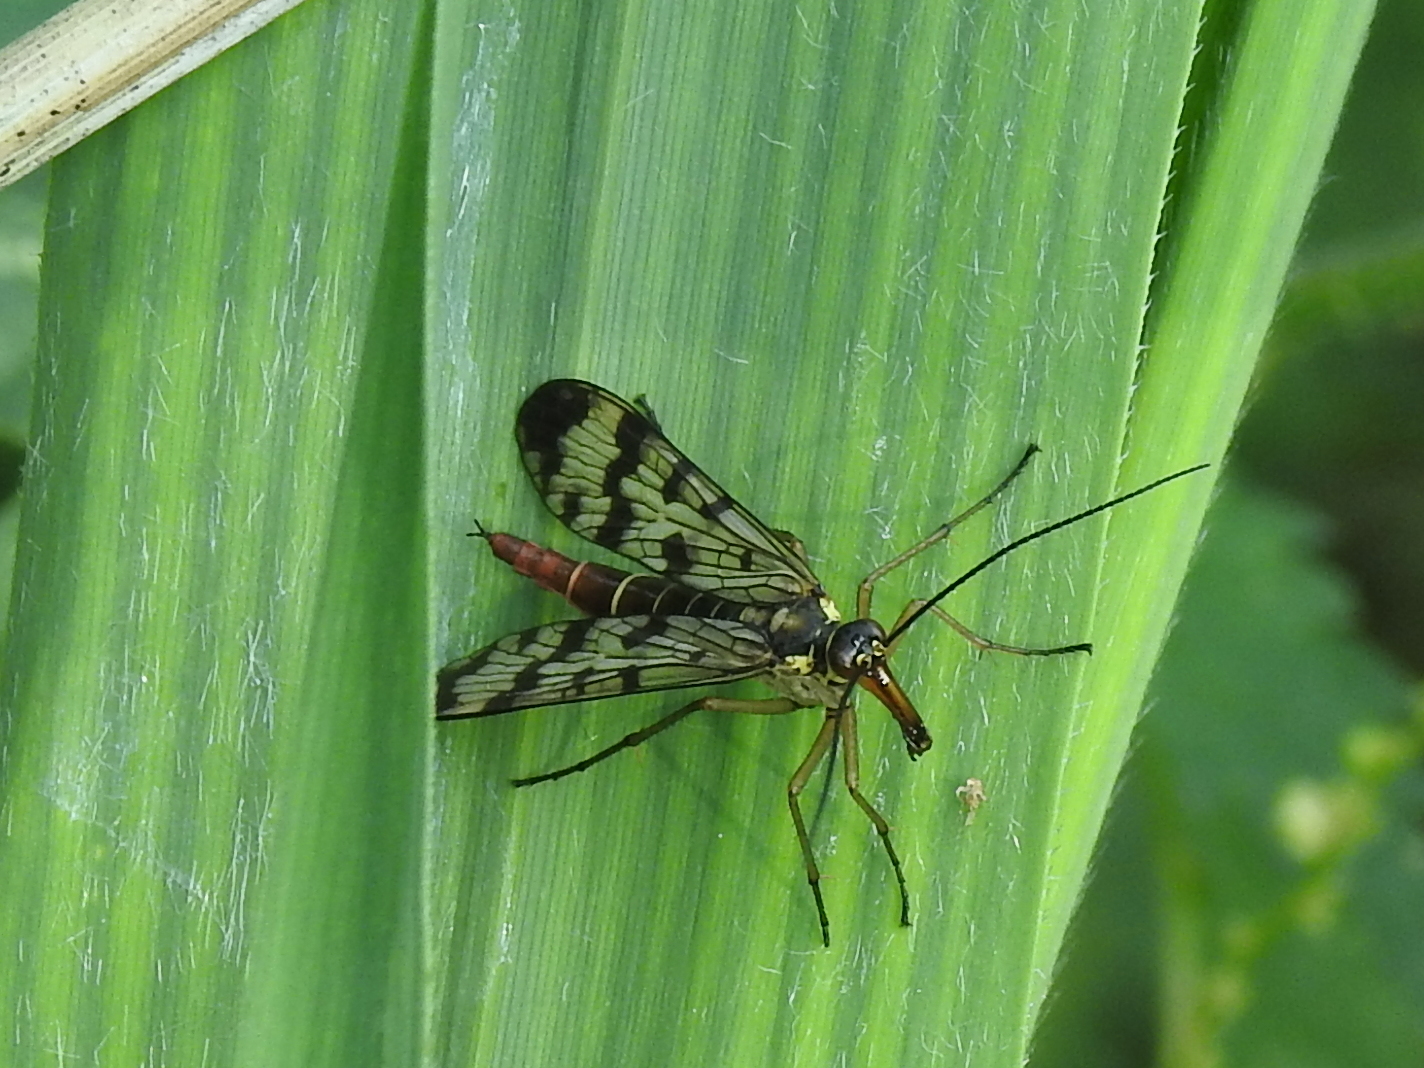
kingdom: Animalia
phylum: Arthropoda
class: Insecta
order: Mecoptera
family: Panorpidae
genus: Panorpa
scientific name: Panorpa communis
